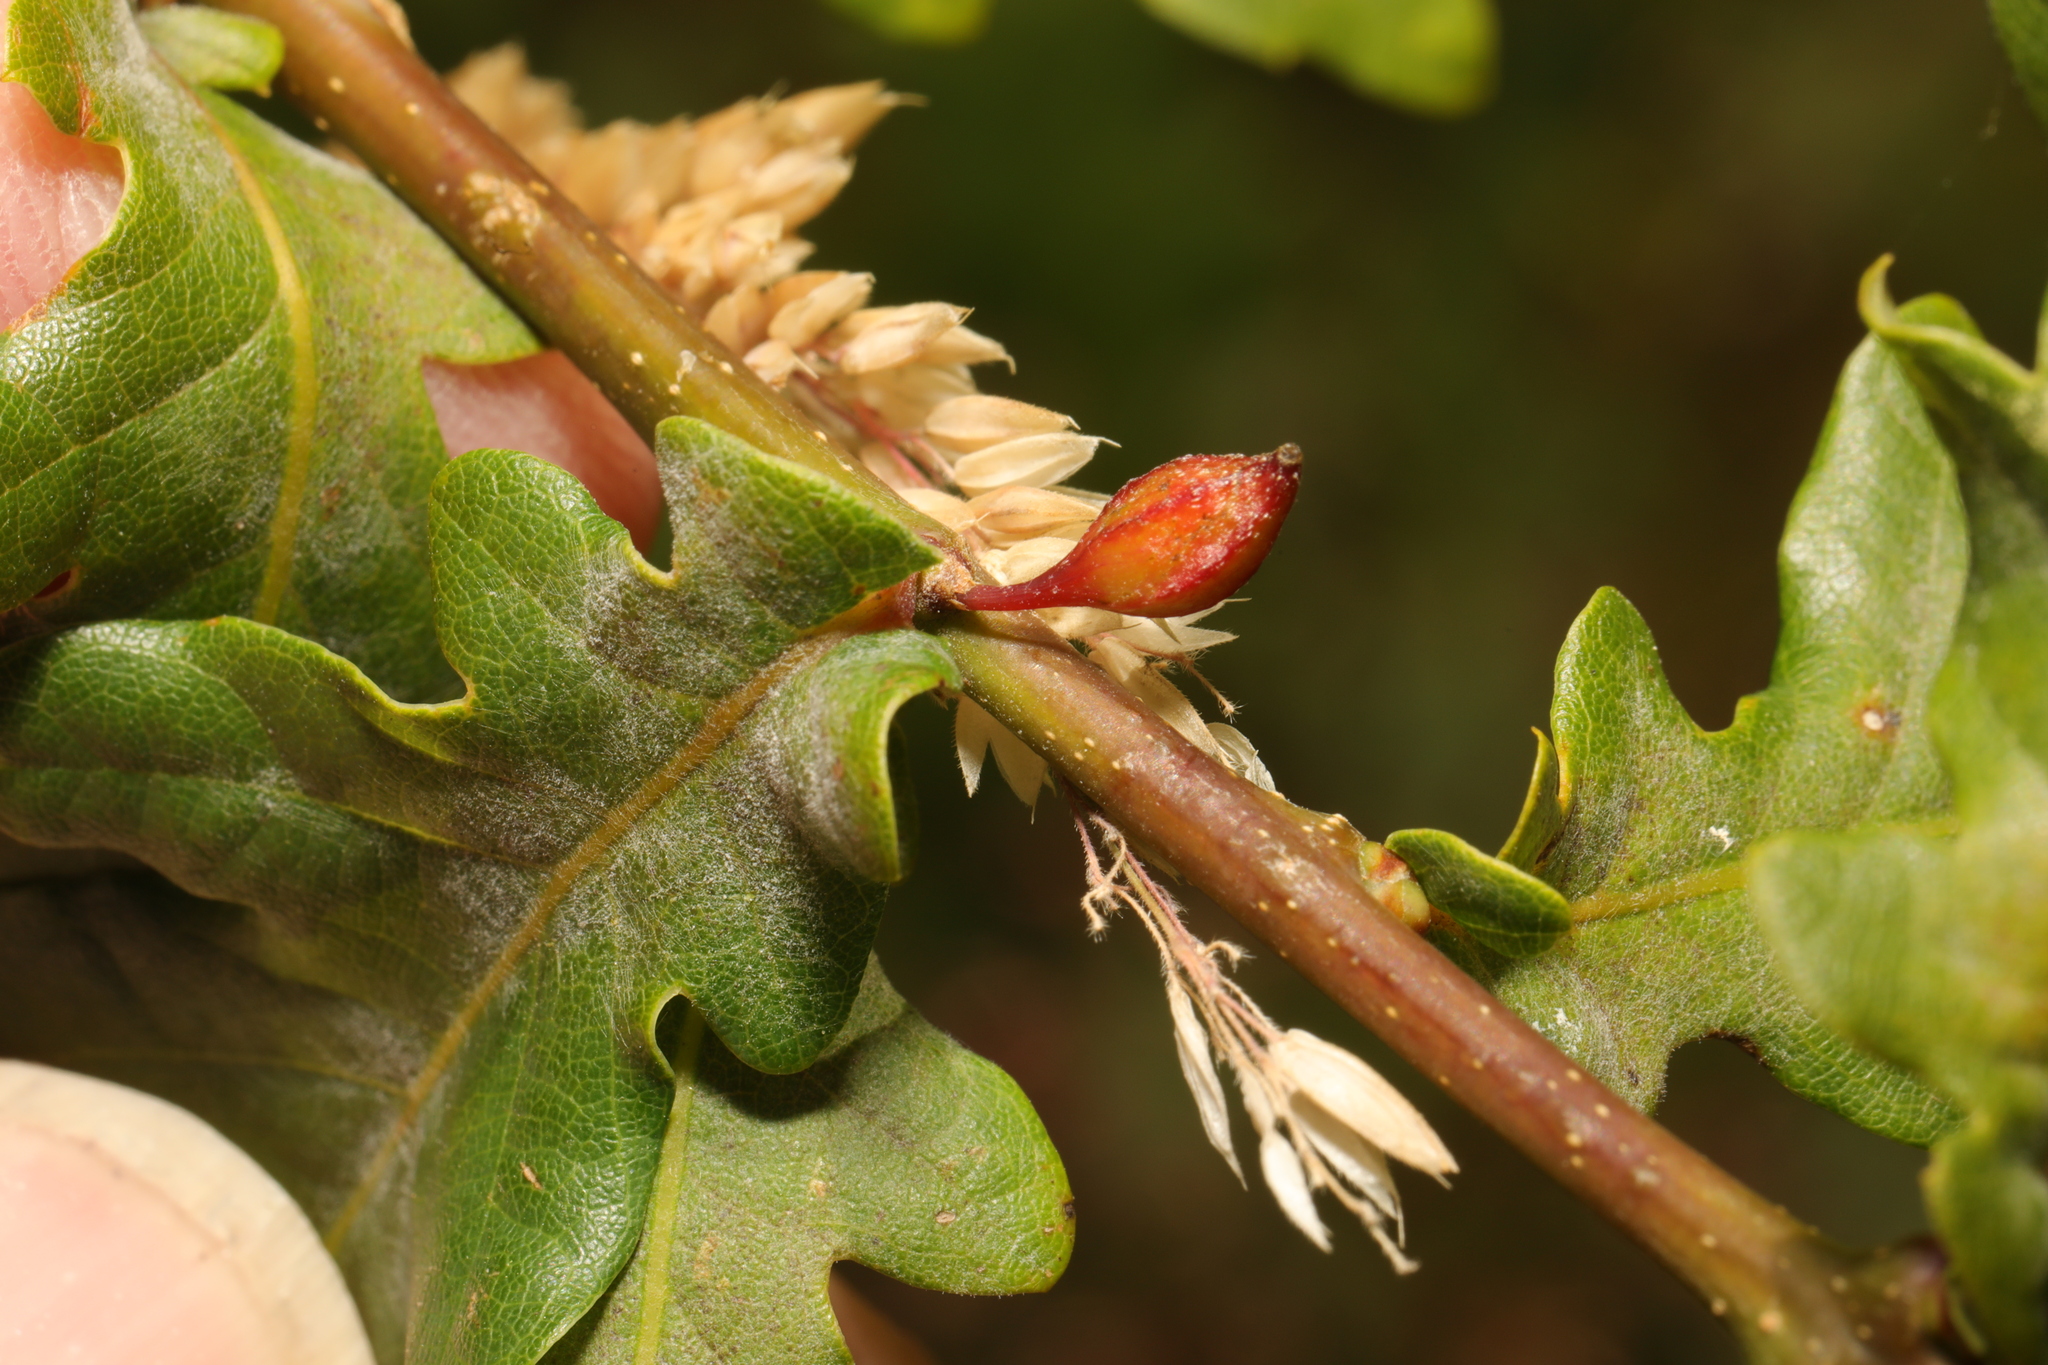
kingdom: Animalia
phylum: Arthropoda
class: Insecta
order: Hymenoptera
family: Cynipidae
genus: Andricus
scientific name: Andricus callidoma
